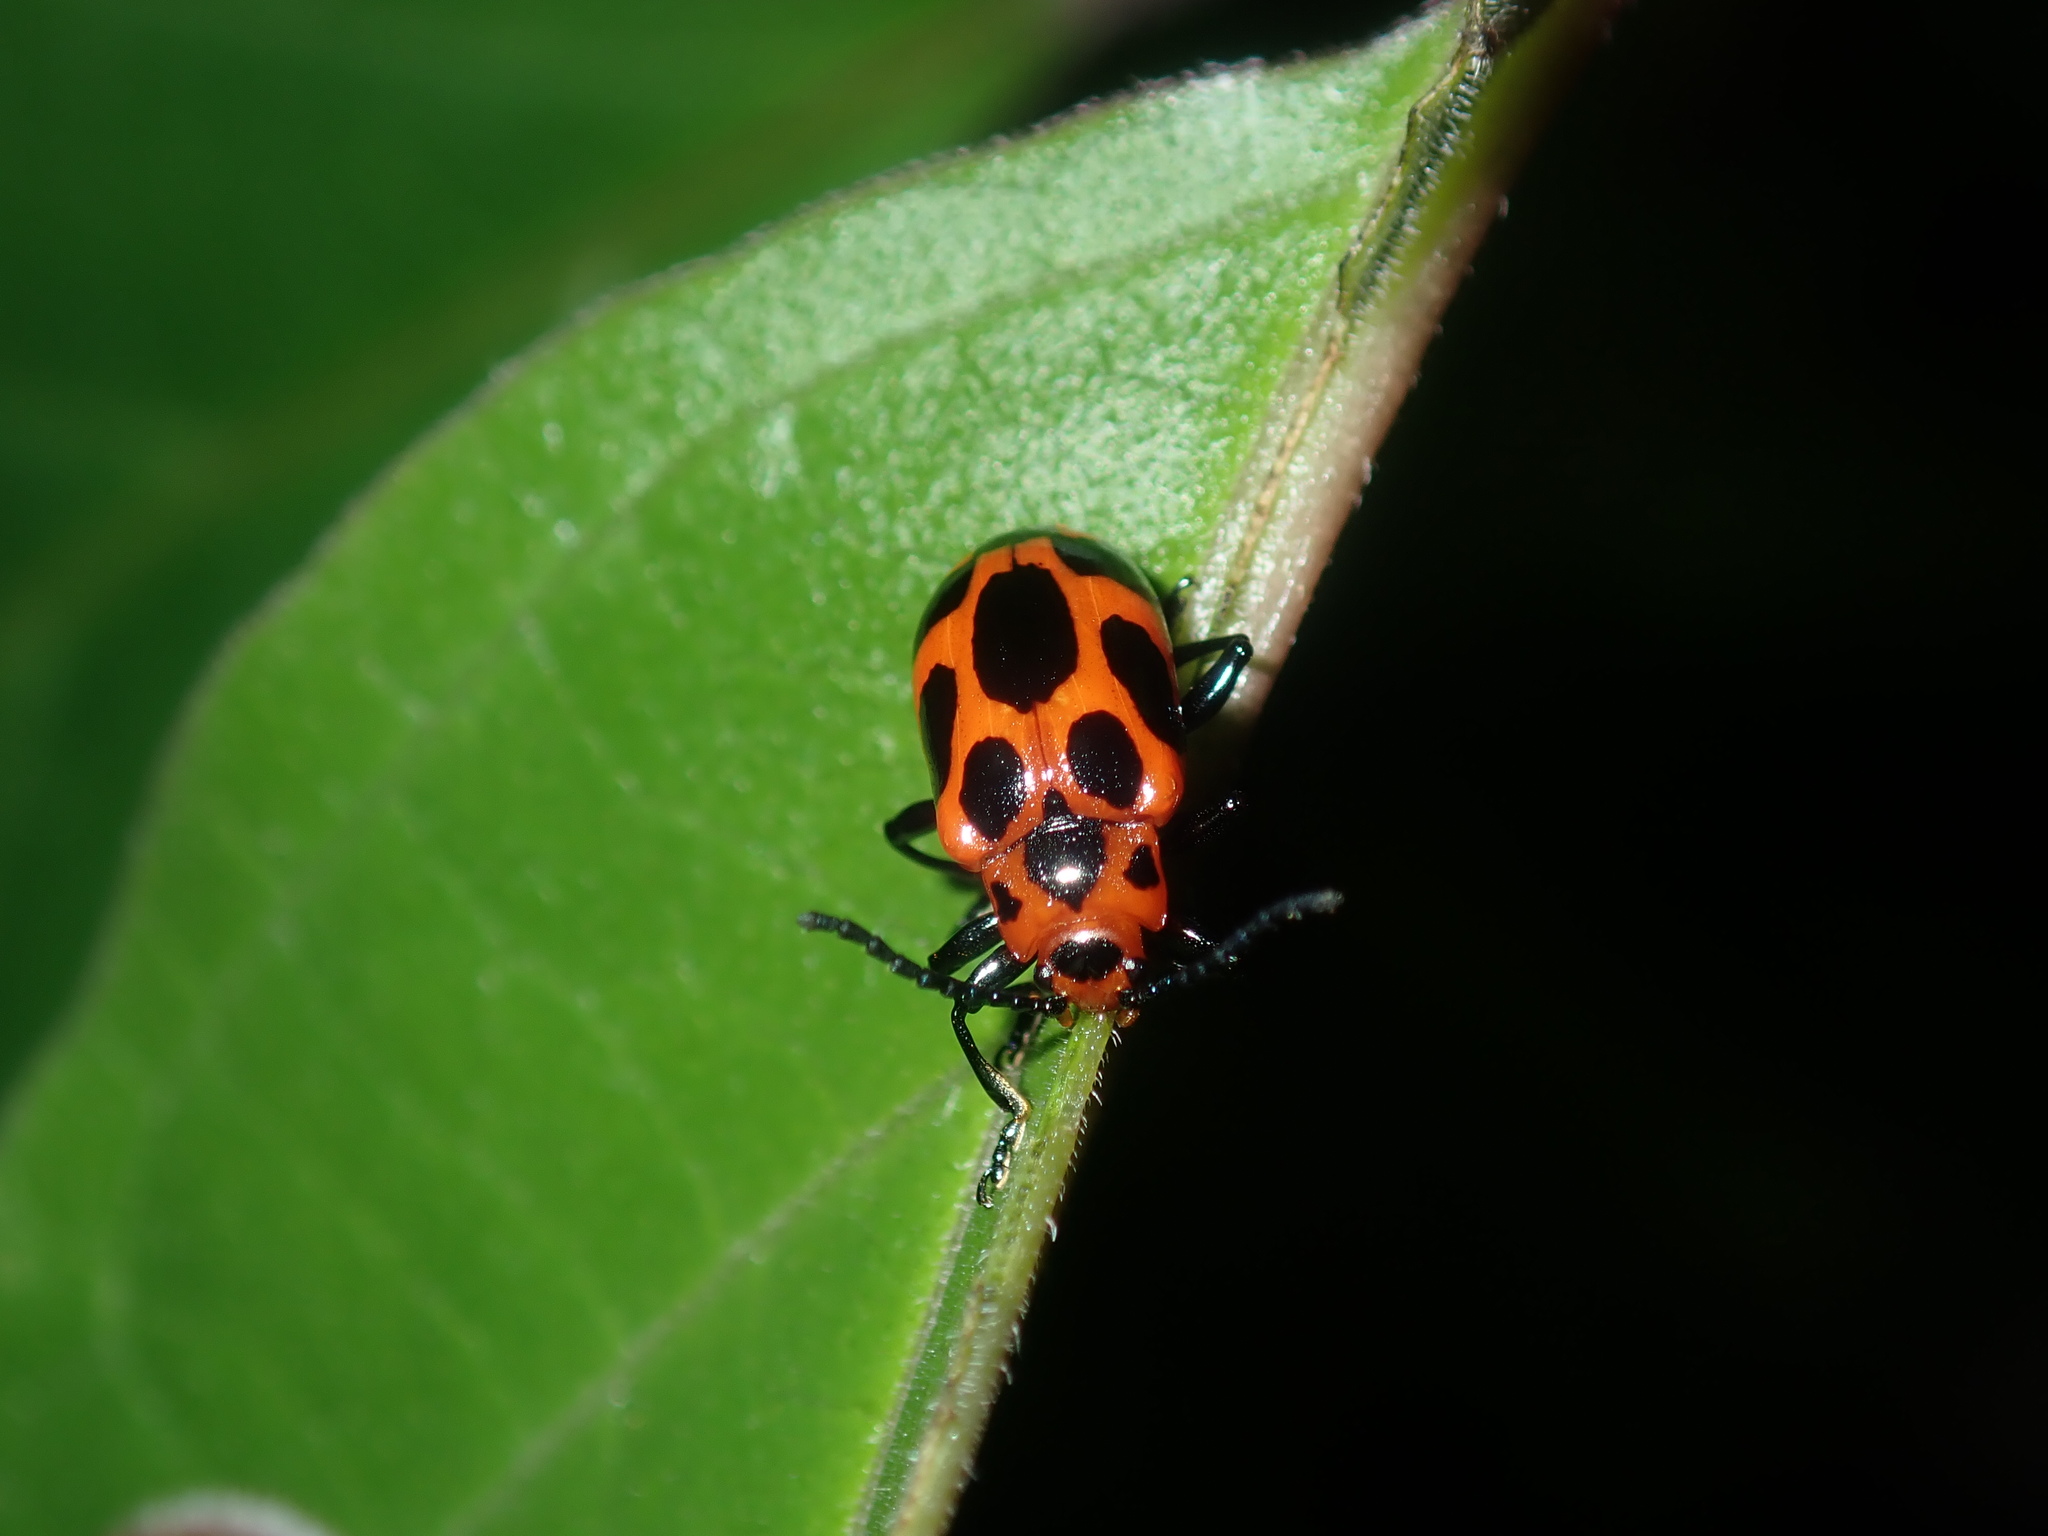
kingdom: Animalia
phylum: Arthropoda
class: Insecta
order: Coleoptera
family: Chrysomelidae
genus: Phyllocharis
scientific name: Phyllocharis
